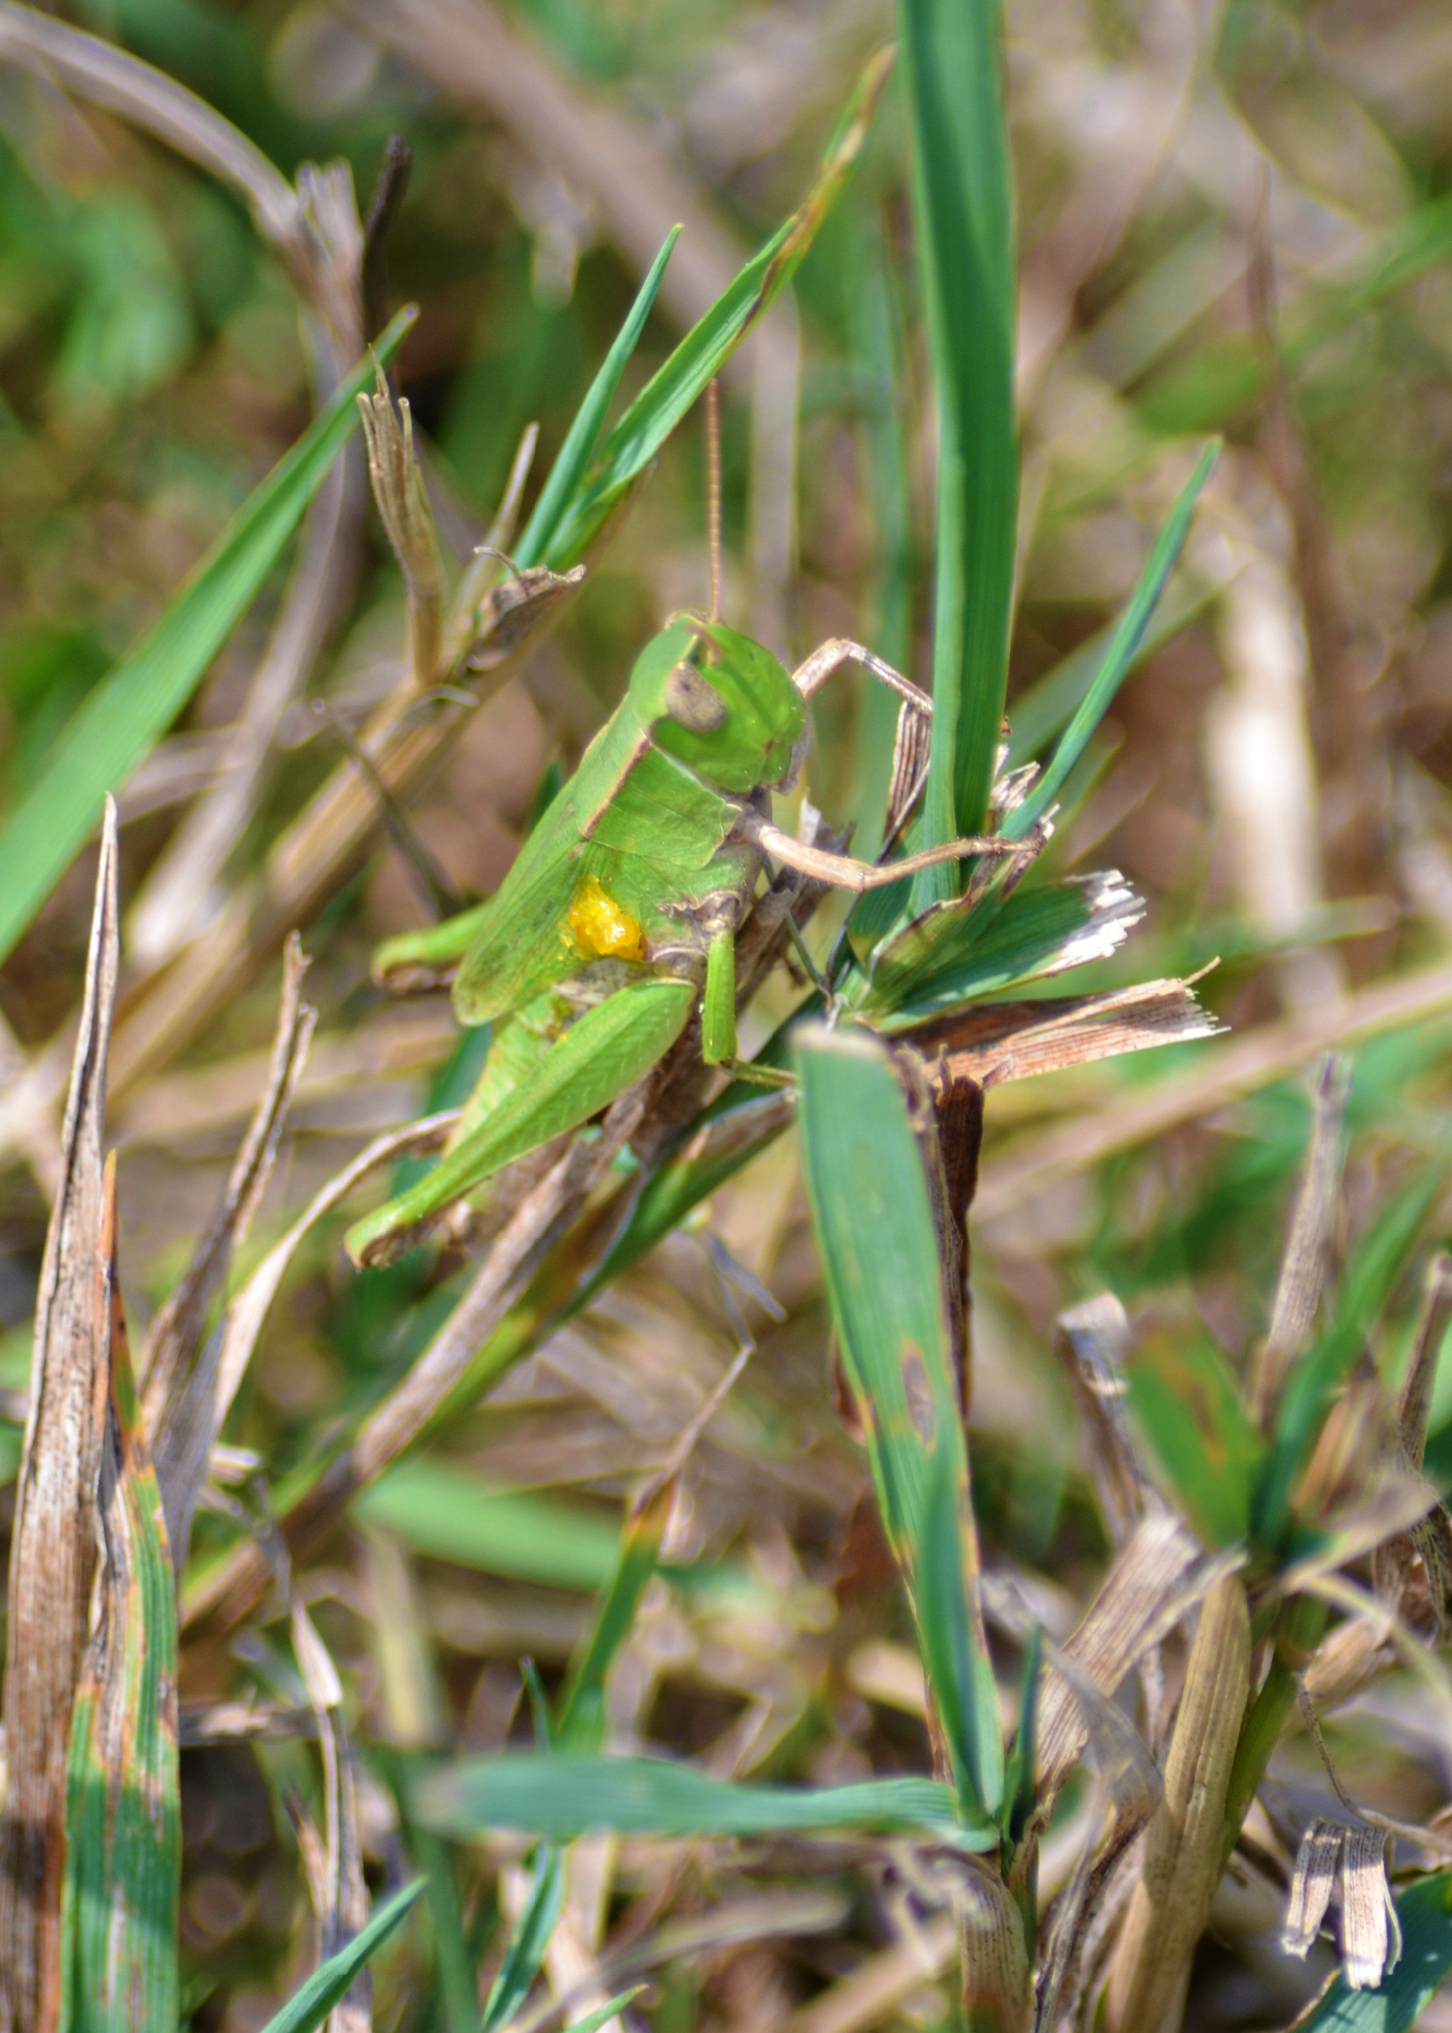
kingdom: Animalia
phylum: Arthropoda
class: Insecta
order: Orthoptera
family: Acrididae
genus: Dichromorpha
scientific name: Dichromorpha viridis
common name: Short-winged green grasshopper
